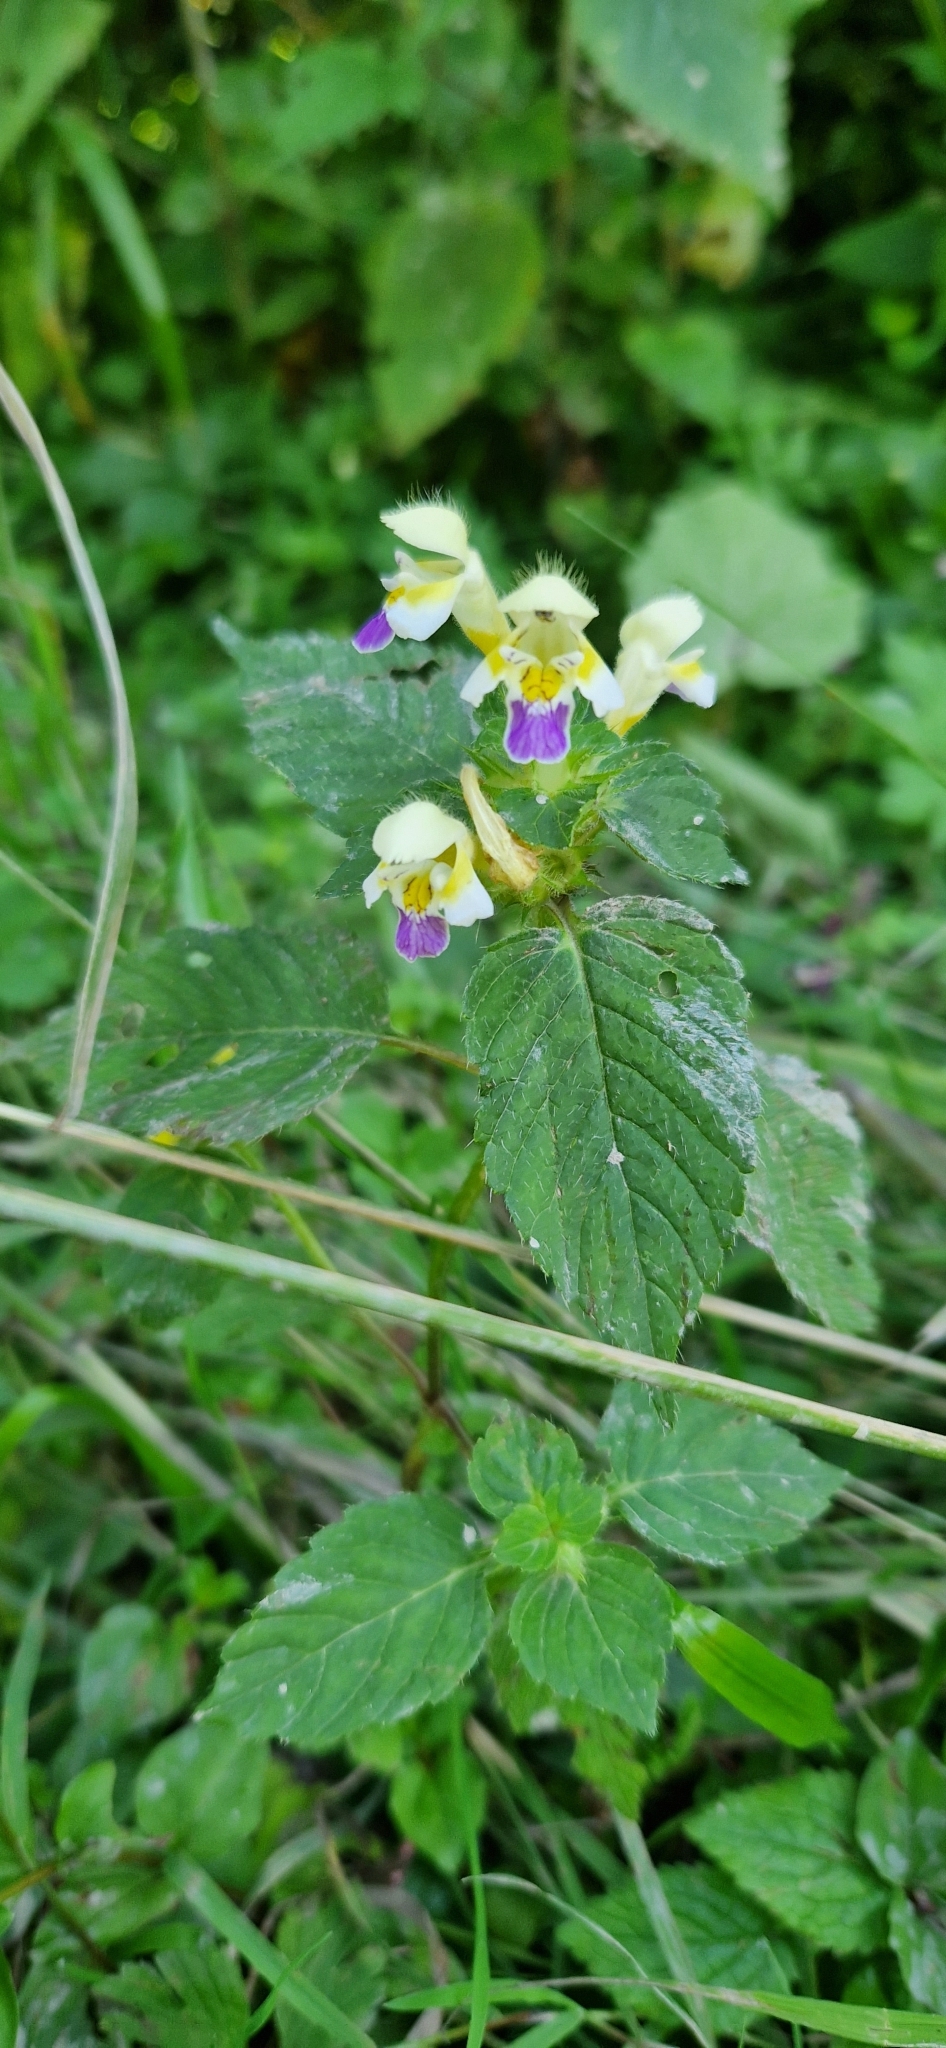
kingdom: Plantae
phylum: Tracheophyta
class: Magnoliopsida
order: Lamiales
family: Lamiaceae
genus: Galeopsis
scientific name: Galeopsis speciosa
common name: Large-flowered hemp-nettle
